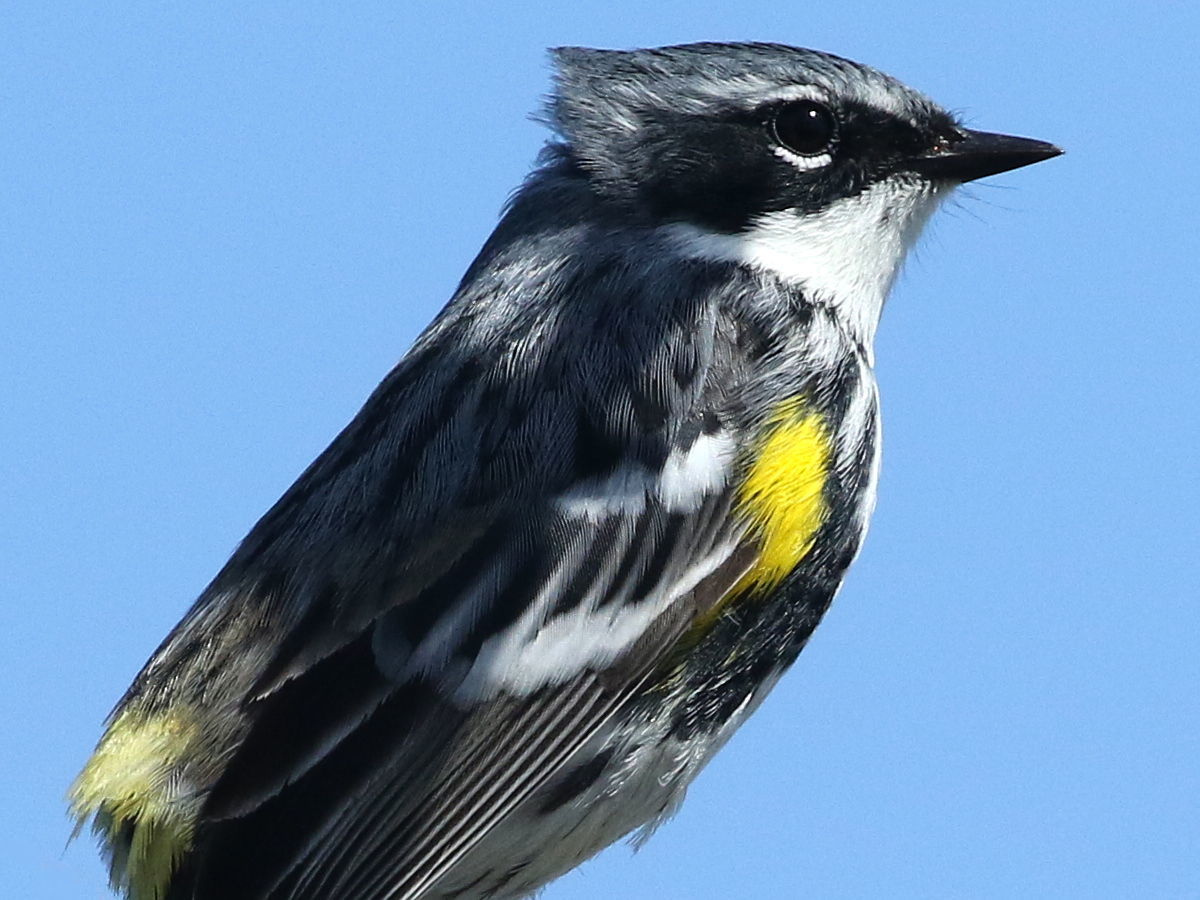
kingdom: Animalia
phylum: Chordata
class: Aves
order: Passeriformes
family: Parulidae
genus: Setophaga
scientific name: Setophaga coronata
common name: Myrtle warbler
